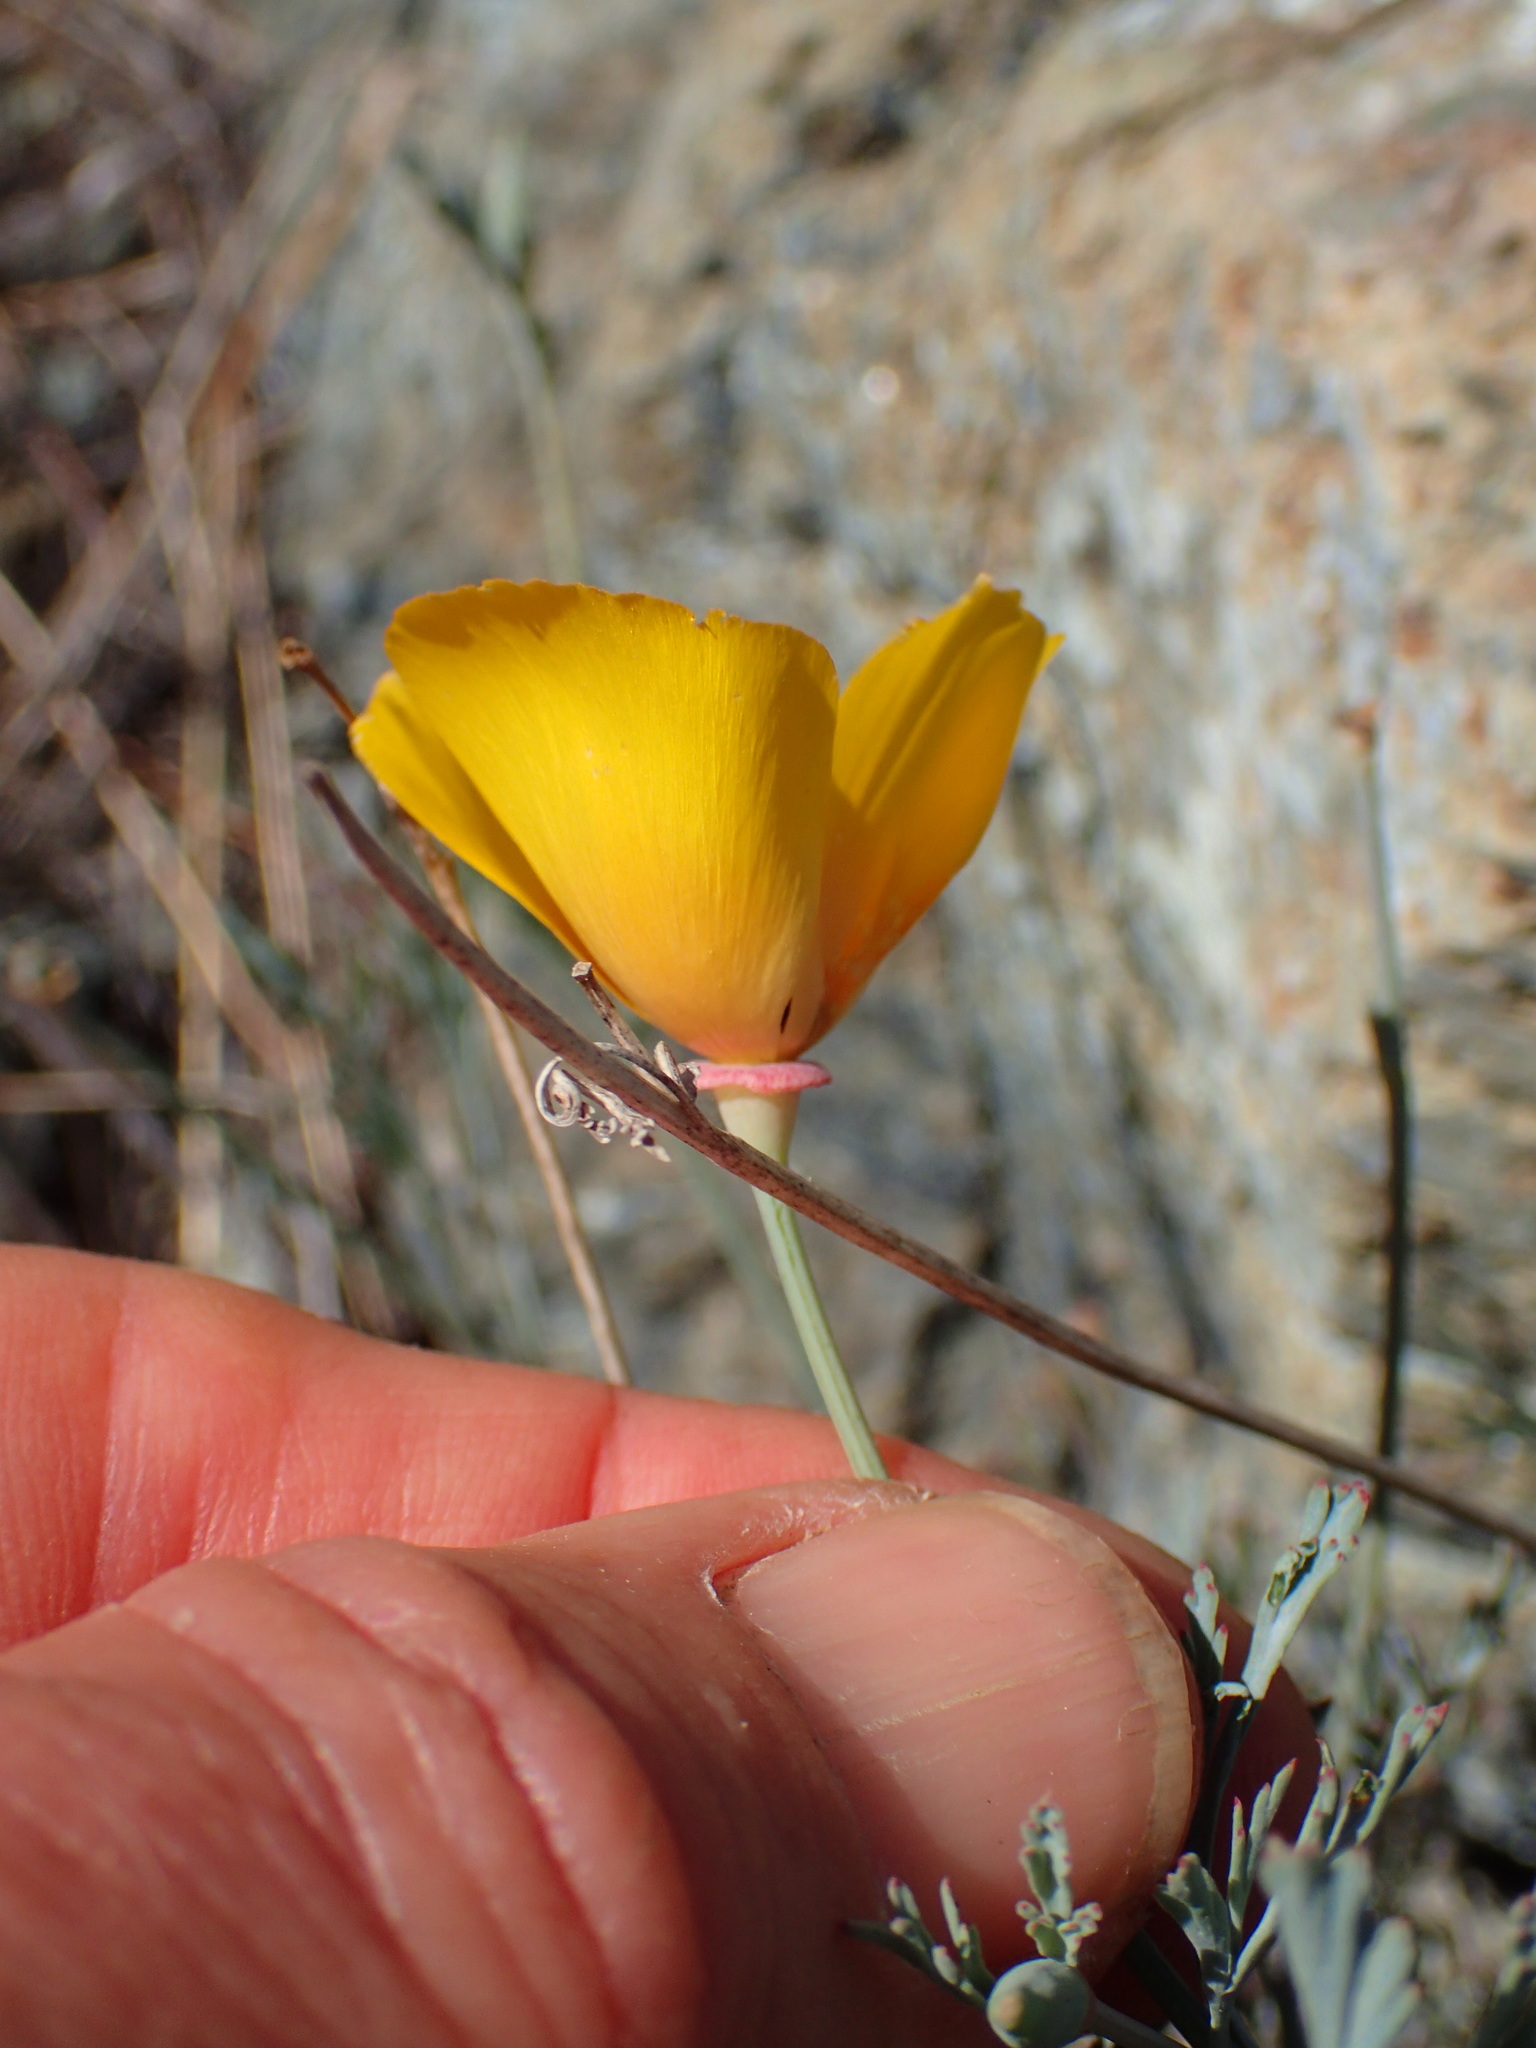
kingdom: Plantae
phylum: Tracheophyta
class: Magnoliopsida
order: Ranunculales
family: Papaveraceae
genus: Eschscholzia
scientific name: Eschscholzia californica
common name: California poppy
